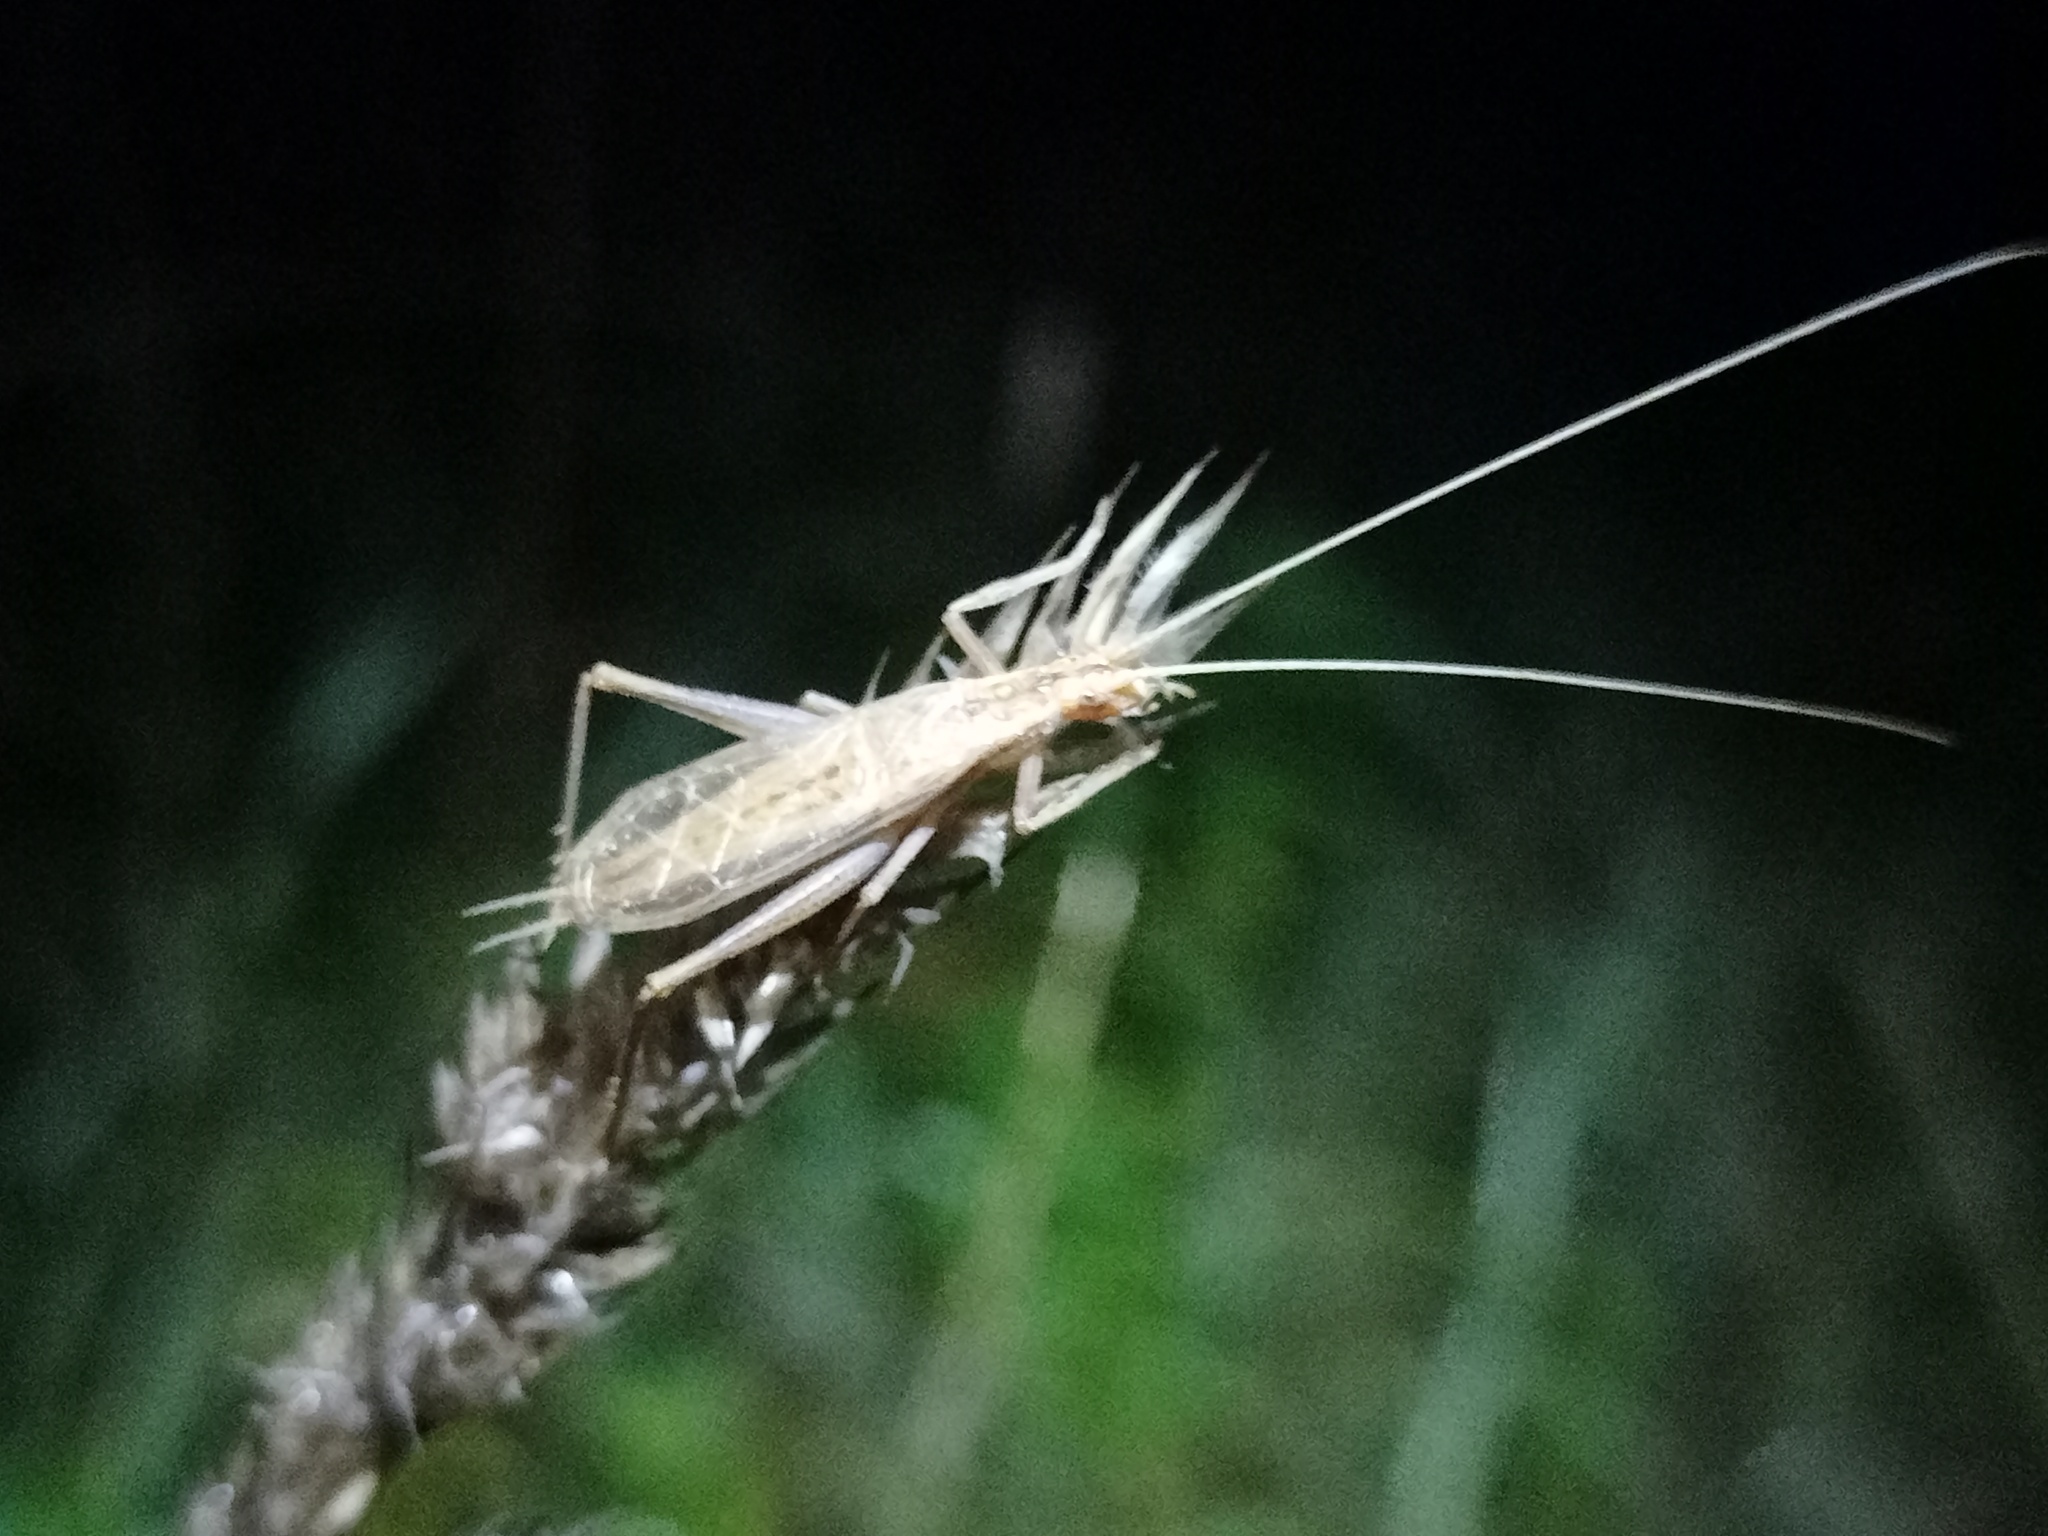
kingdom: Animalia
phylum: Arthropoda
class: Insecta
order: Orthoptera
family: Gryllidae
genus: Oecanthus
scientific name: Oecanthus pellucens
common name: Tree-cricket
